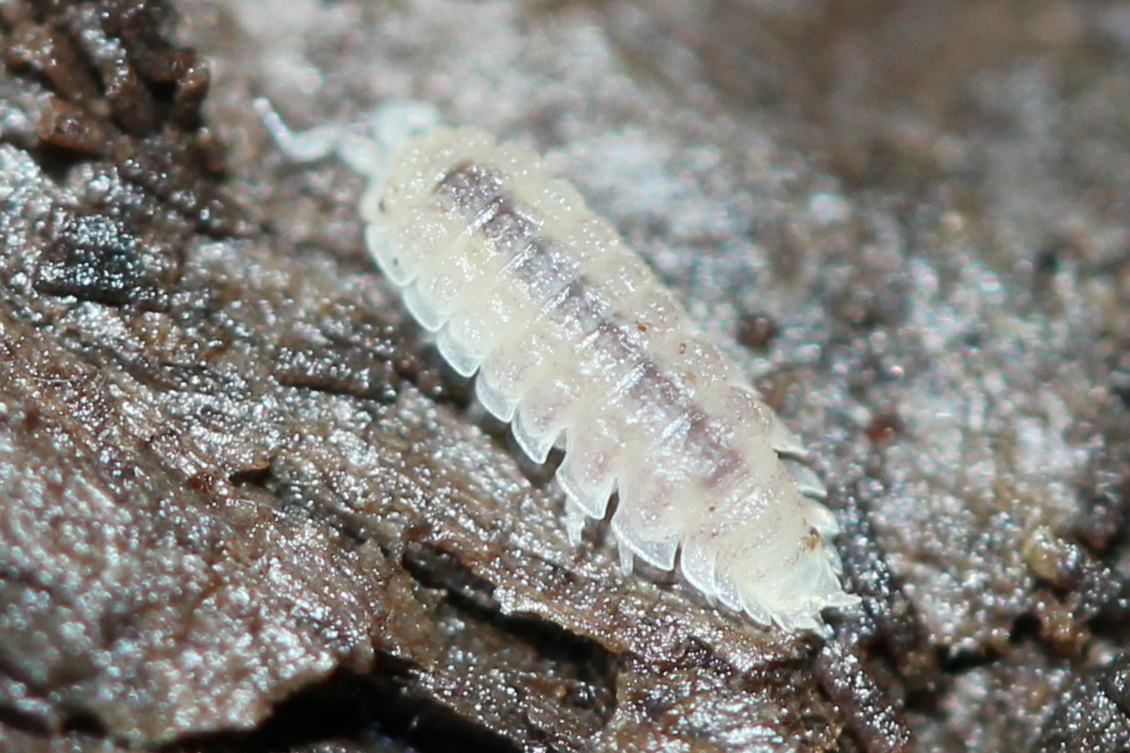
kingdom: Animalia
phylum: Arthropoda
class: Malacostraca
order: Isopoda
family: Trichoniscidae
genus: Haplophthalmus
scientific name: Haplophthalmus danicus
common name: Pillbug
